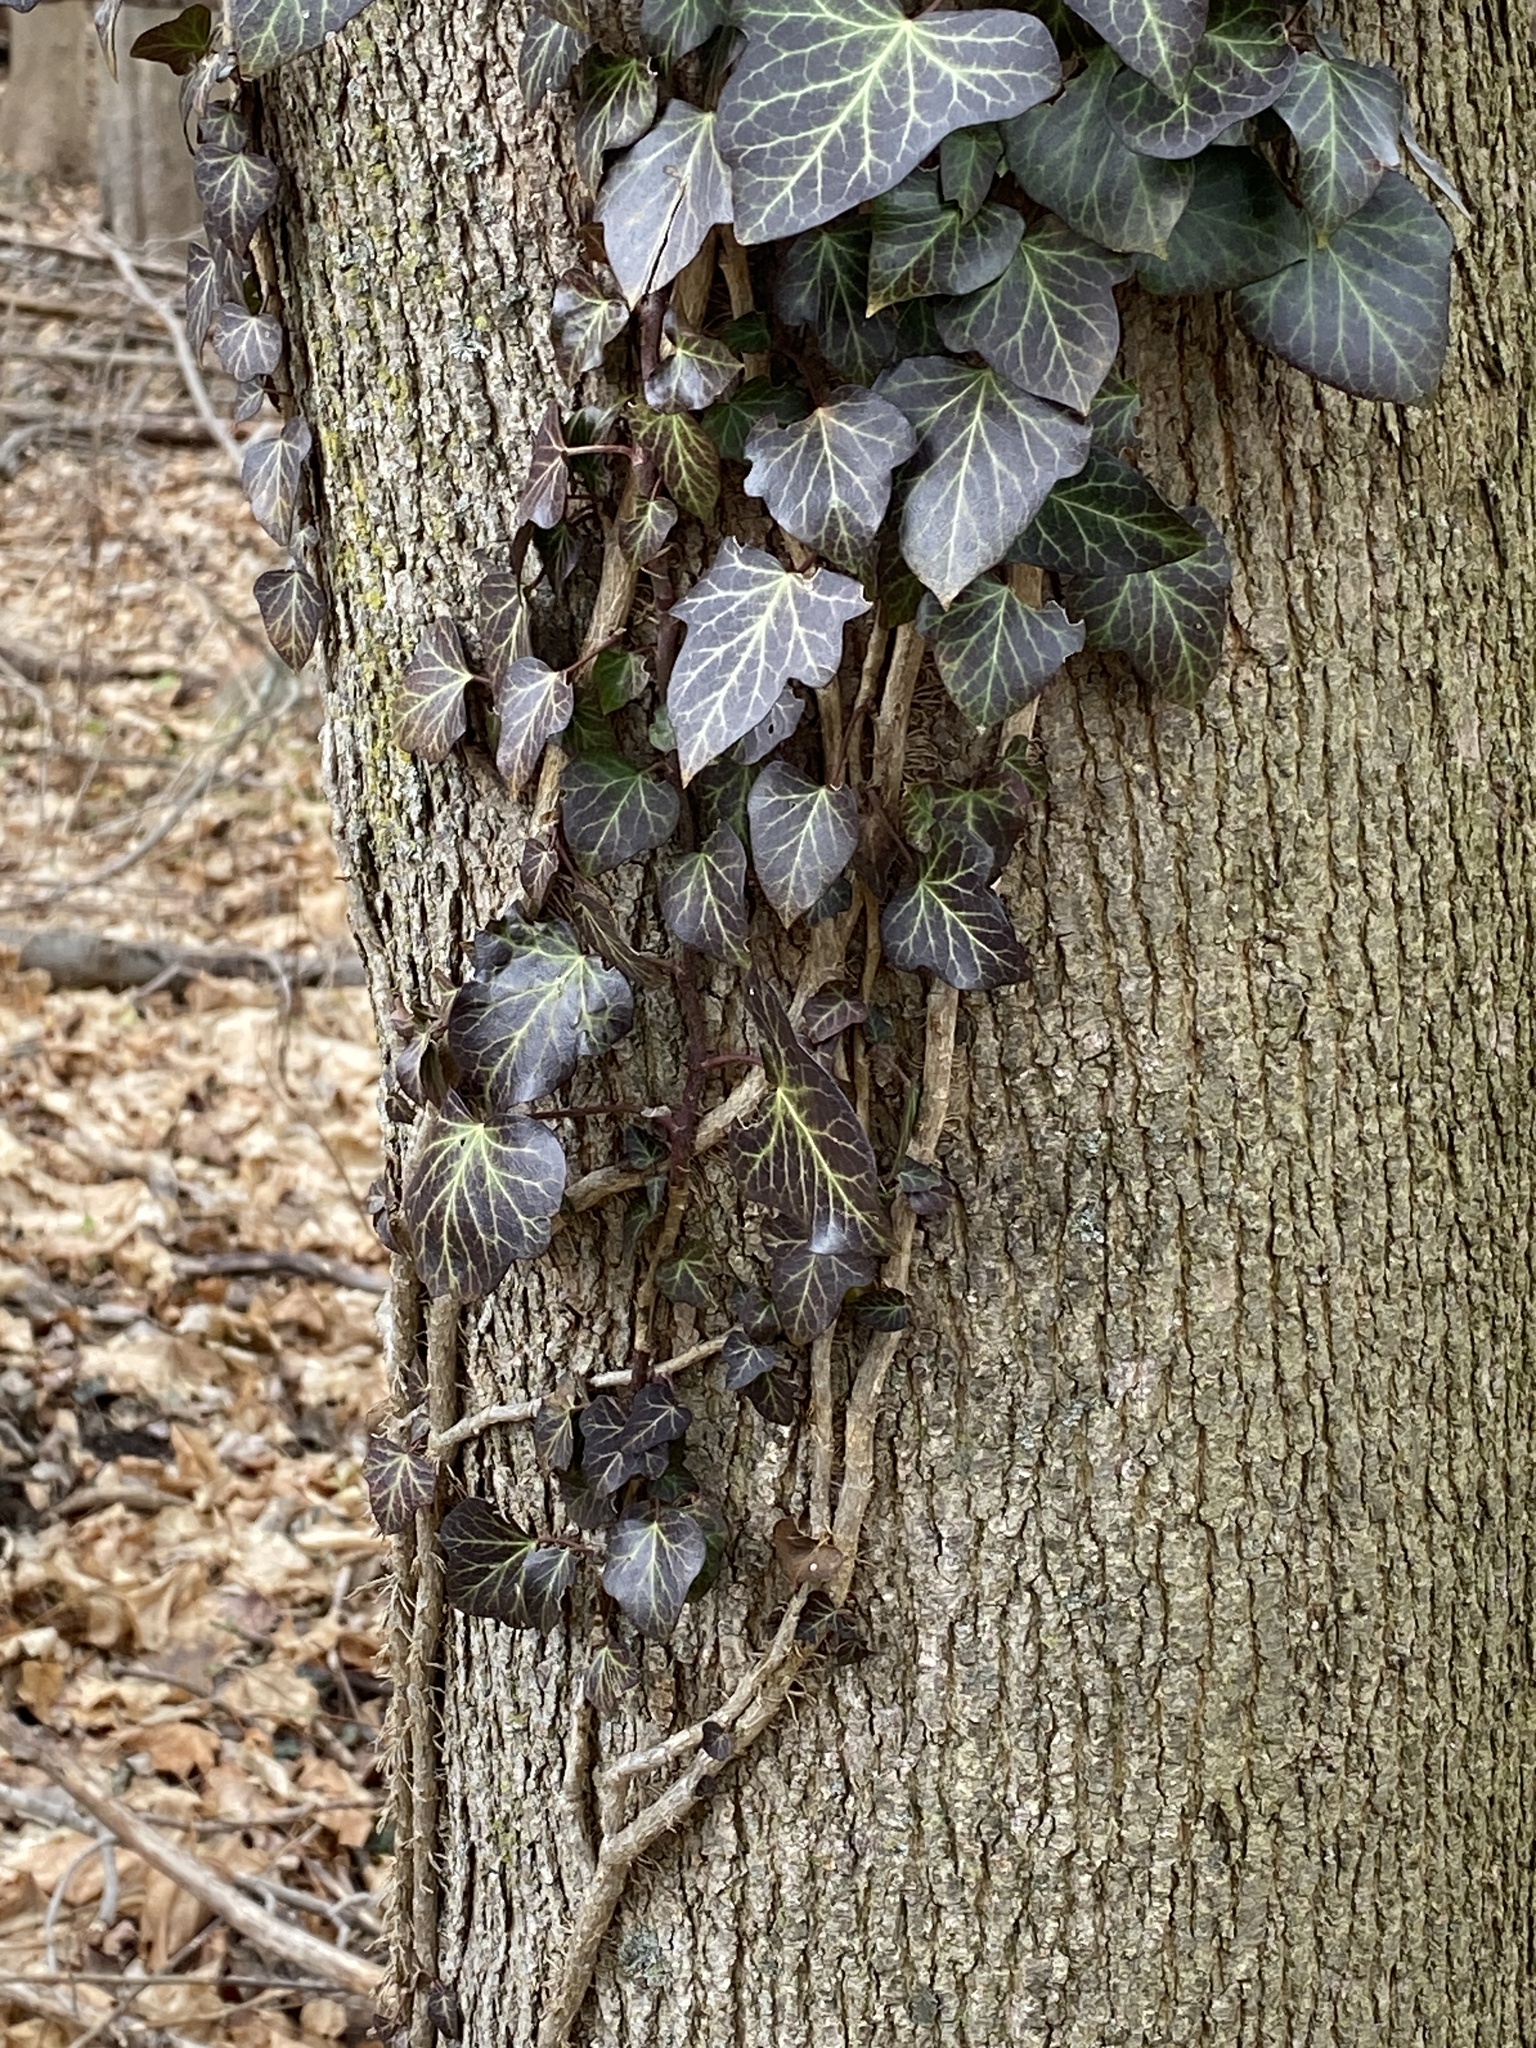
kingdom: Plantae
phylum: Tracheophyta
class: Magnoliopsida
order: Apiales
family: Araliaceae
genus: Hedera
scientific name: Hedera
